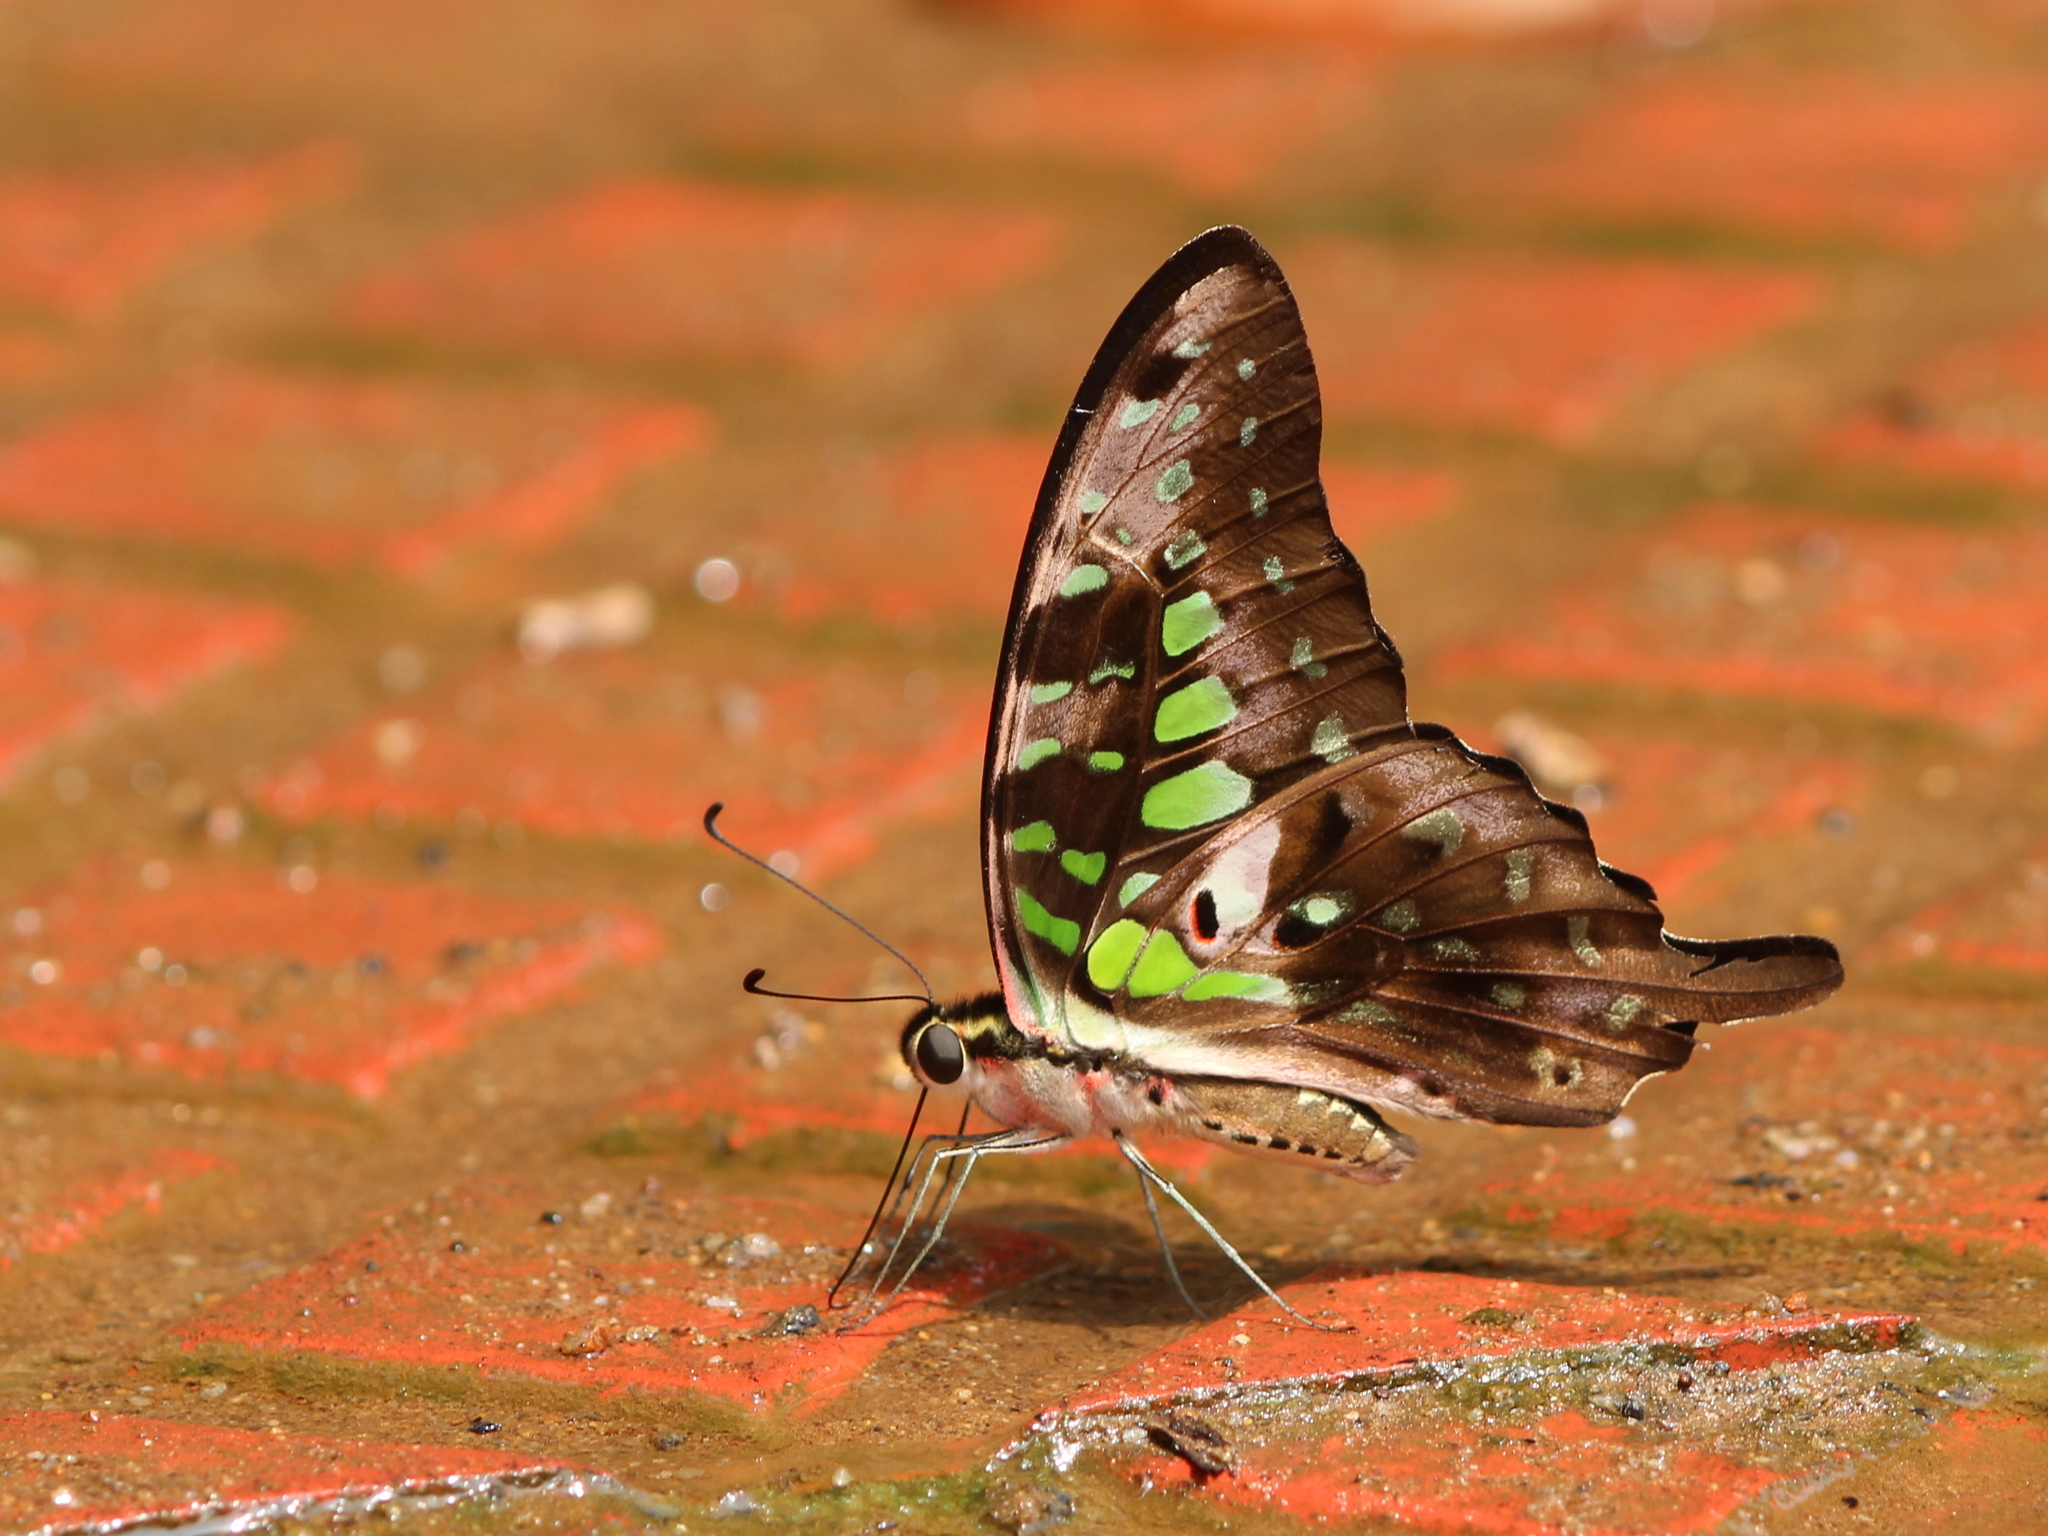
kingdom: Animalia
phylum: Arthropoda
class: Insecta
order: Lepidoptera
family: Papilionidae
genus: Graphium
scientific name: Graphium agamemnon
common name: Tailed jay
